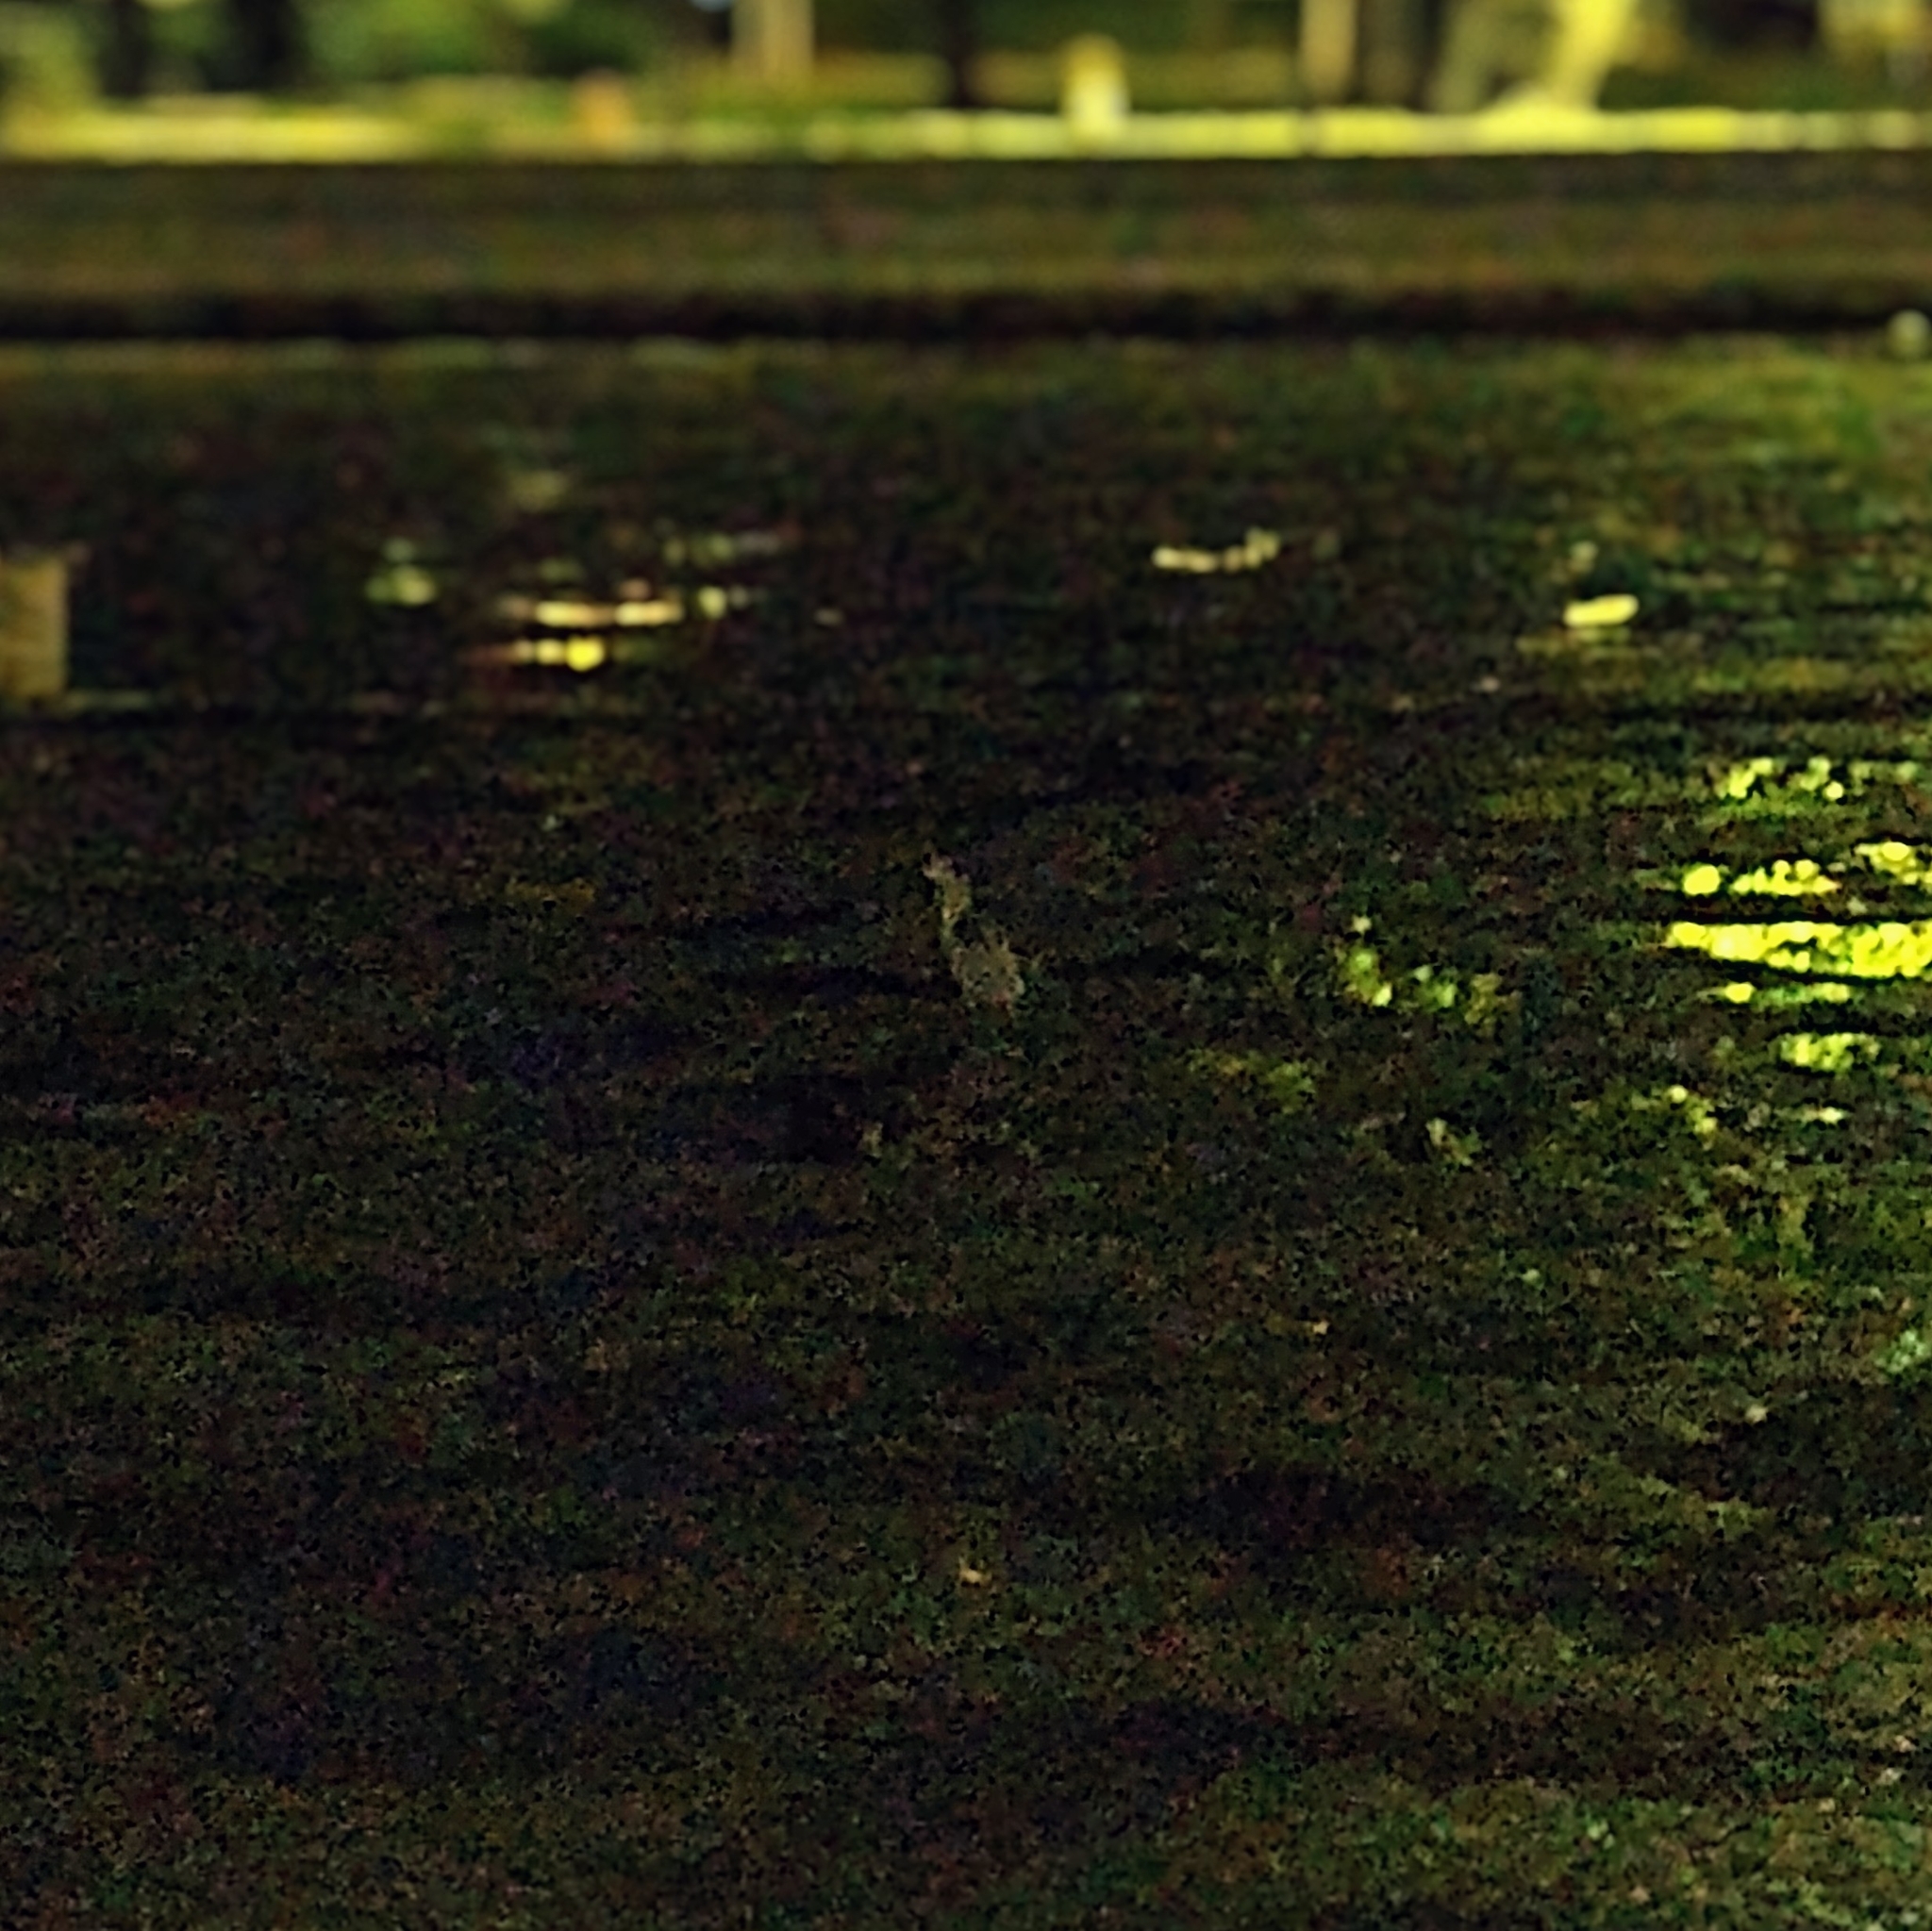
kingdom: Animalia
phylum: Chordata
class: Aves
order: Pelecaniformes
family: Ardeidae
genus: Nycticorax
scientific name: Nycticorax nycticorax
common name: Black-crowned night heron
